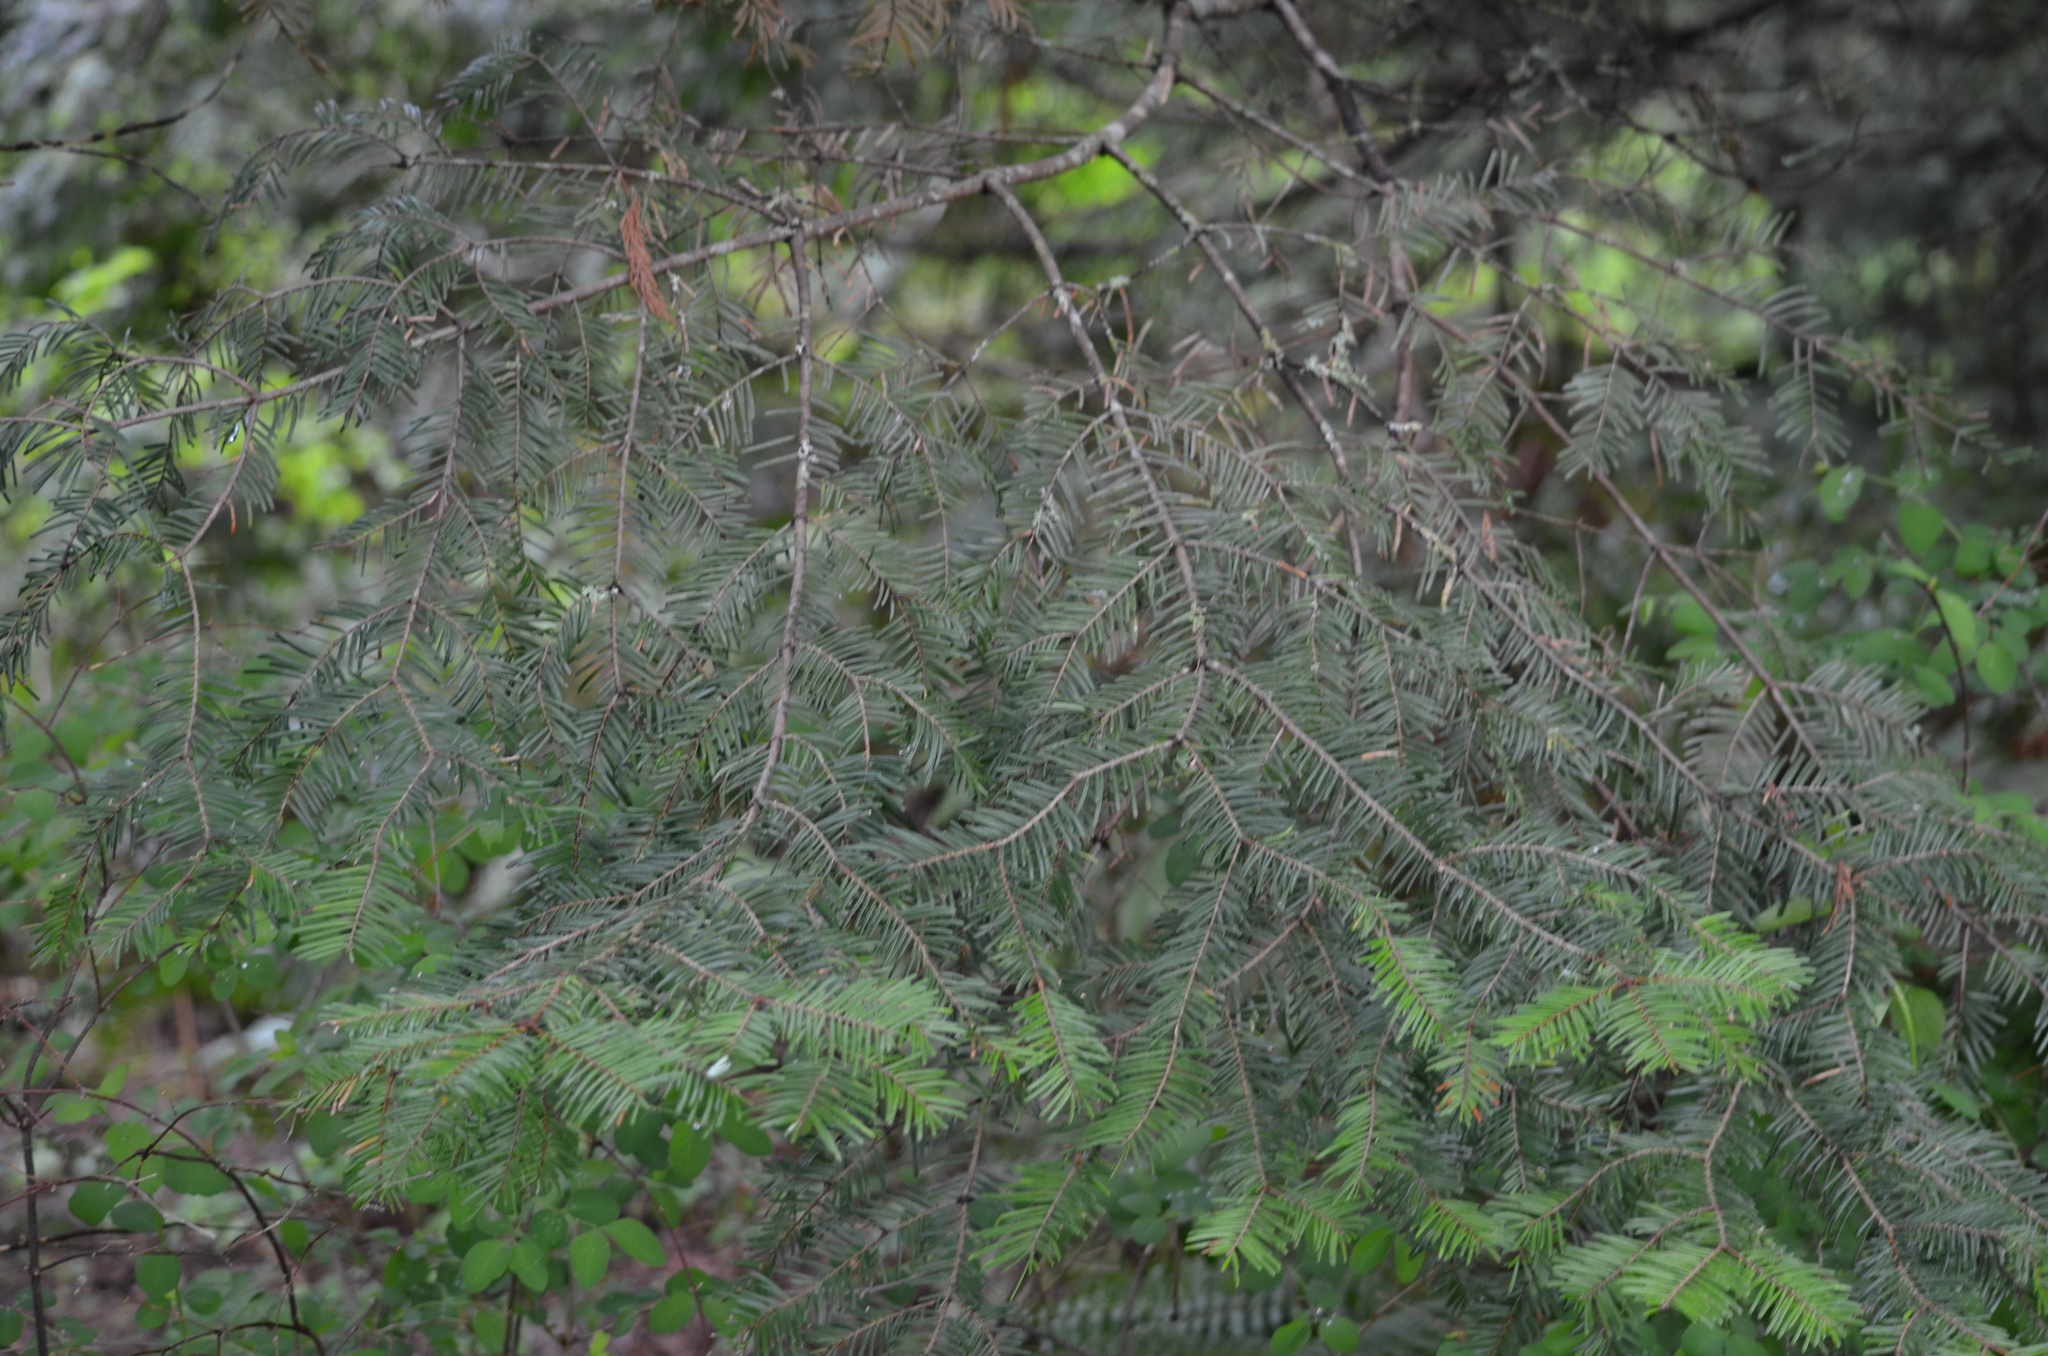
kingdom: Plantae
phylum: Tracheophyta
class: Pinopsida
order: Pinales
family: Pinaceae
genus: Abies
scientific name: Abies grandis
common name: Giant fir
